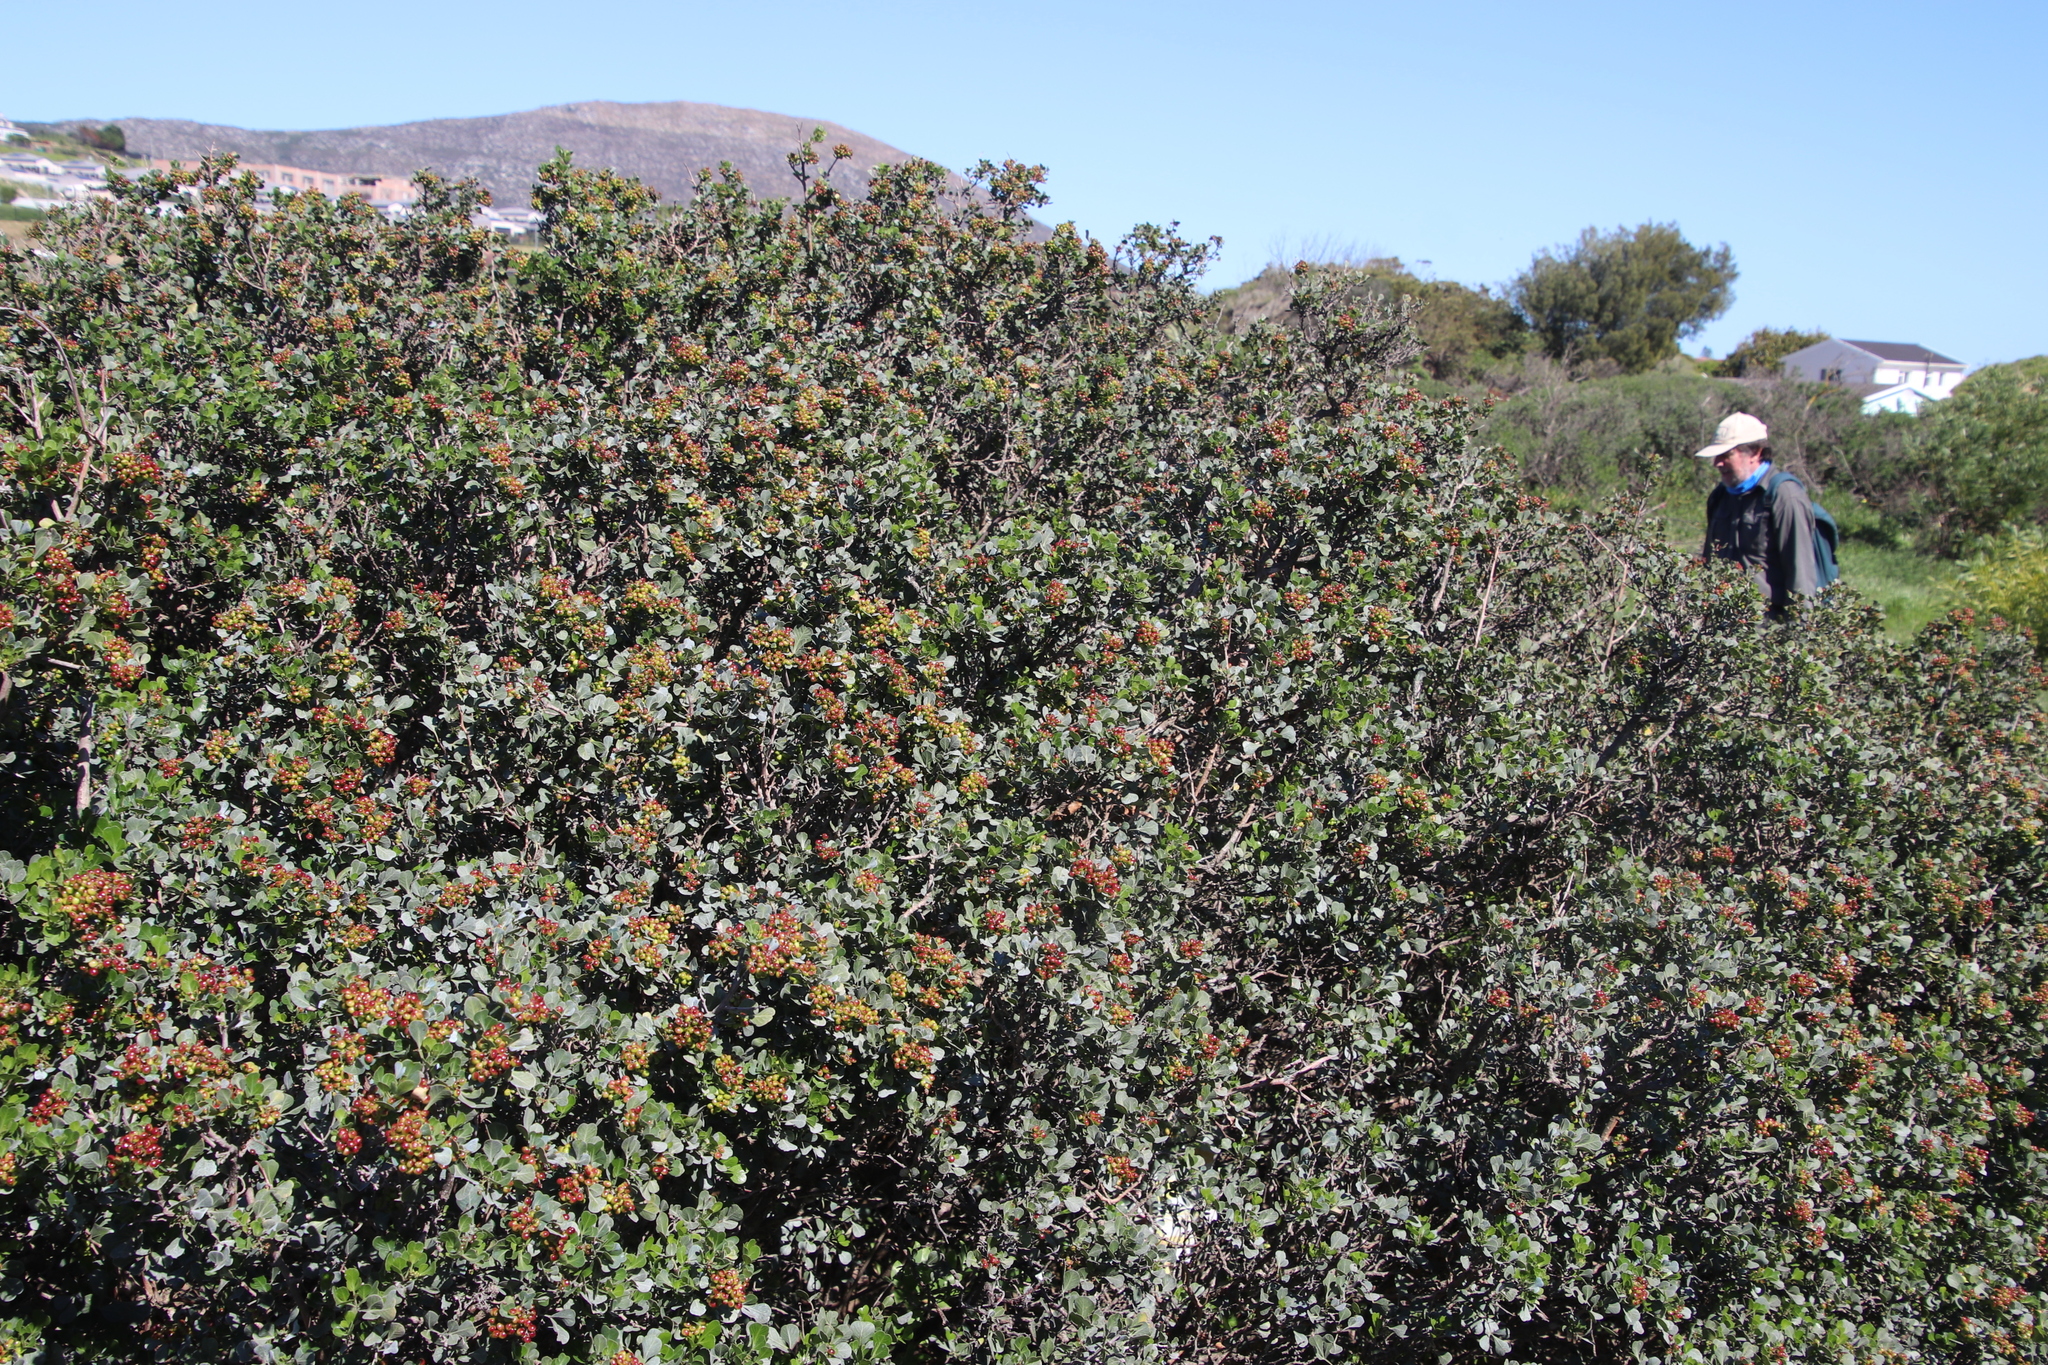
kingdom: Plantae
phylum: Tracheophyta
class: Magnoliopsida
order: Sapindales
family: Anacardiaceae
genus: Searsia
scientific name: Searsia glauca
